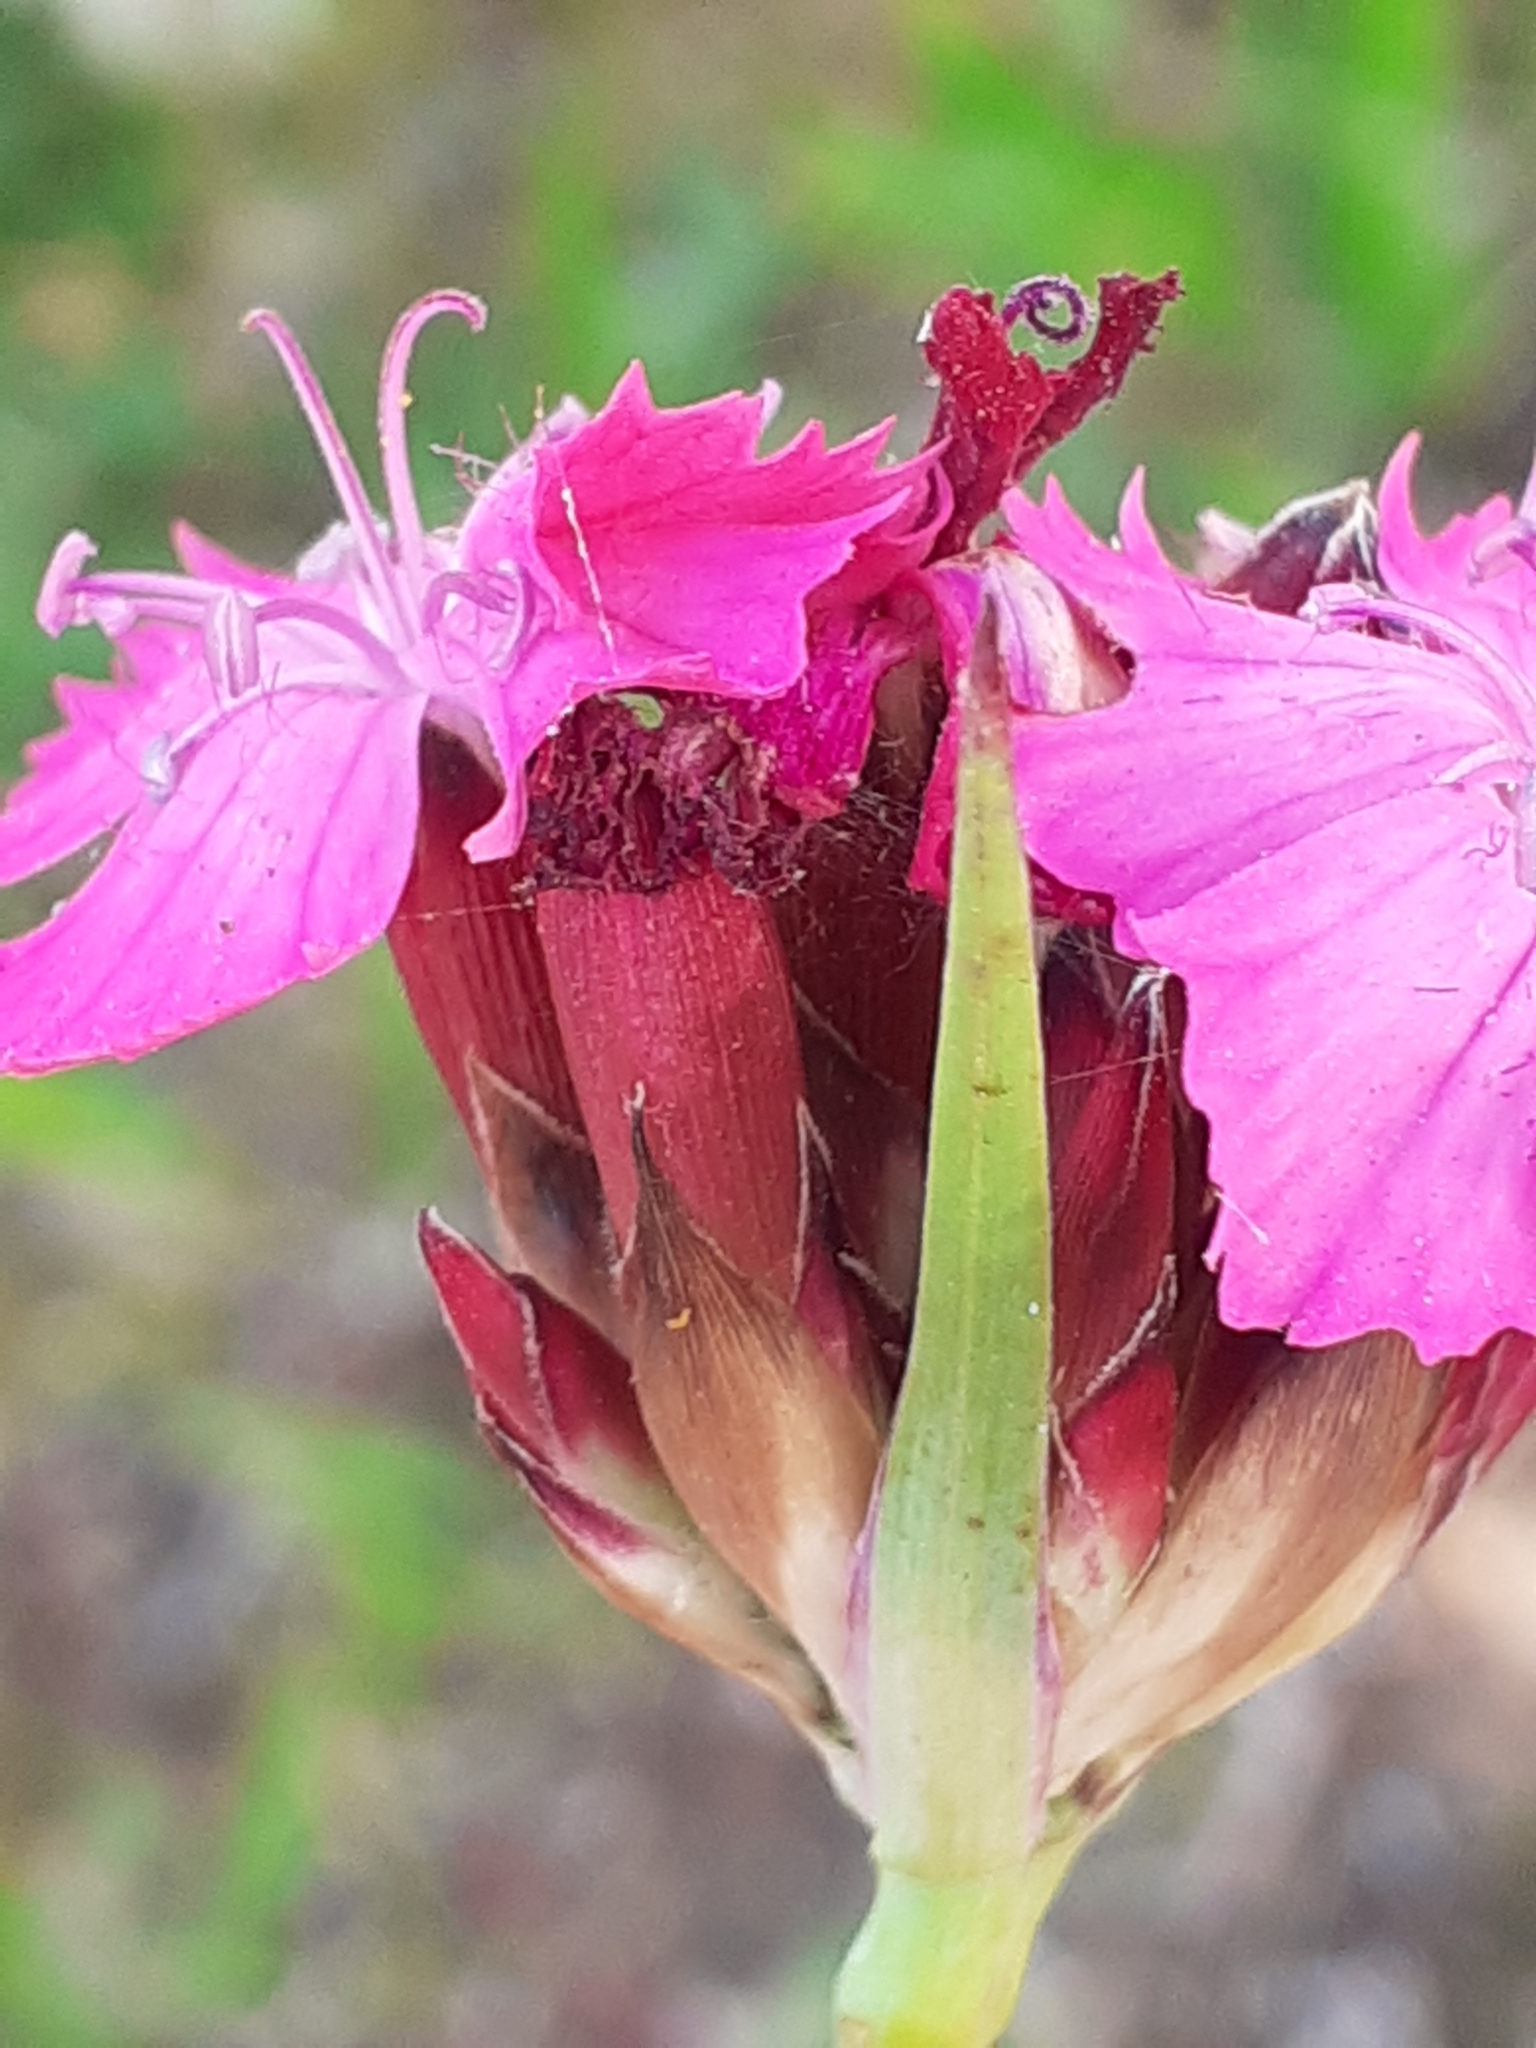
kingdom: Plantae
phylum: Tracheophyta
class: Magnoliopsida
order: Caryophyllales
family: Caryophyllaceae
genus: Dianthus
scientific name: Dianthus giganteus
